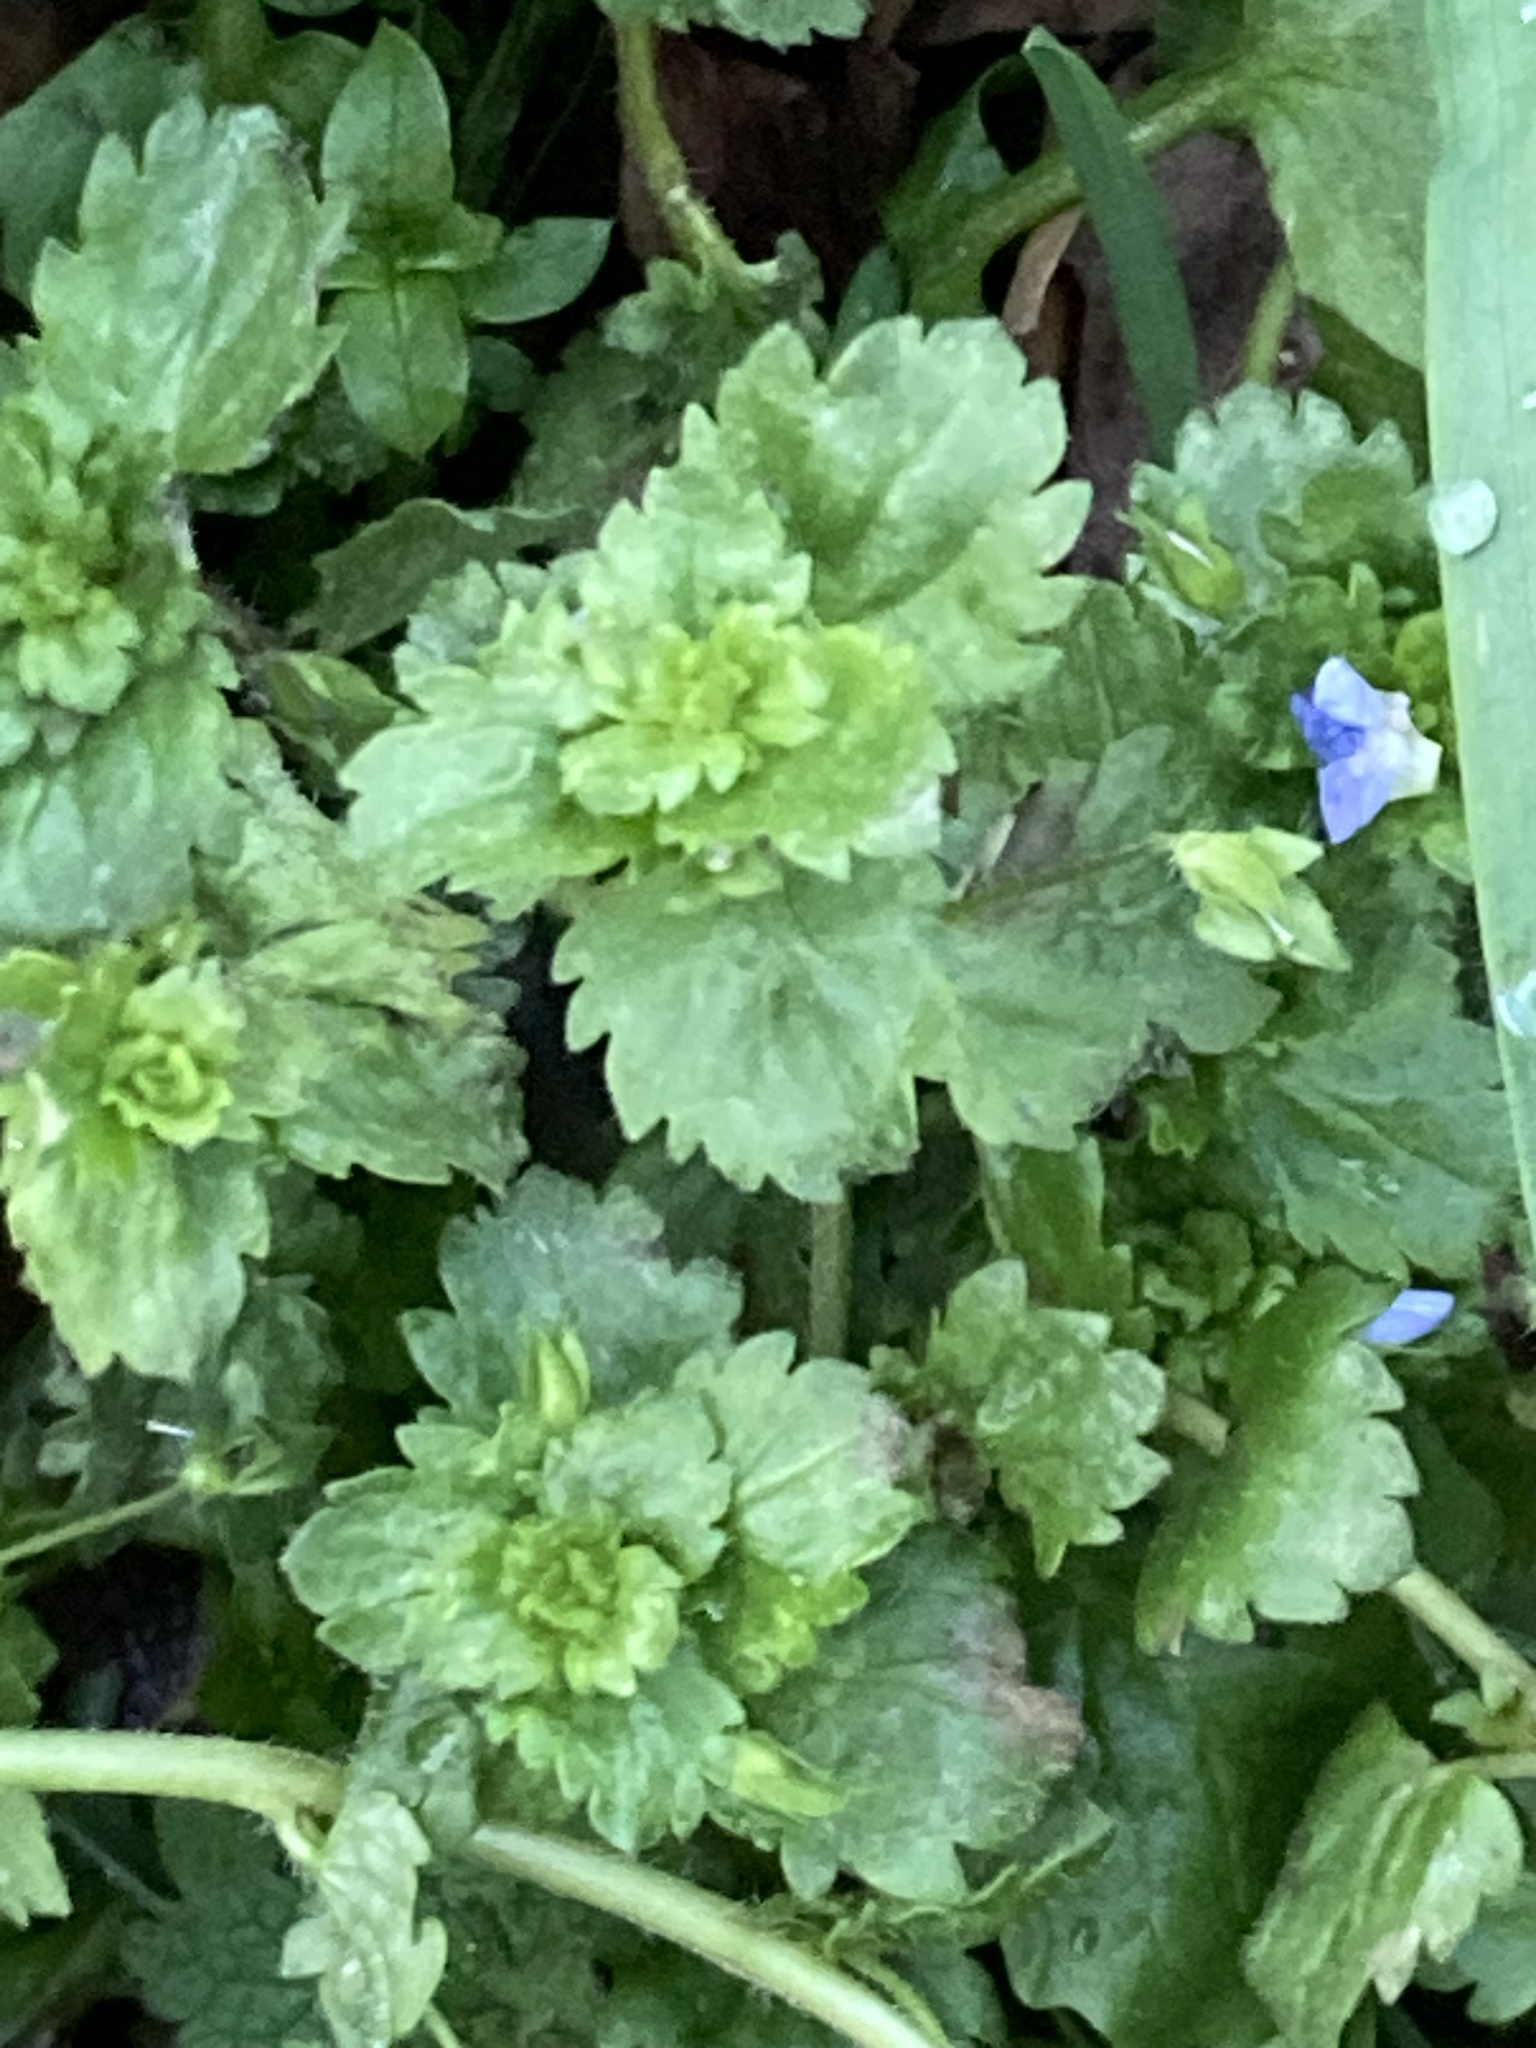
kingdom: Plantae
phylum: Tracheophyta
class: Magnoliopsida
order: Lamiales
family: Plantaginaceae
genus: Veronica
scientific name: Veronica persica
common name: Common field-speedwell
